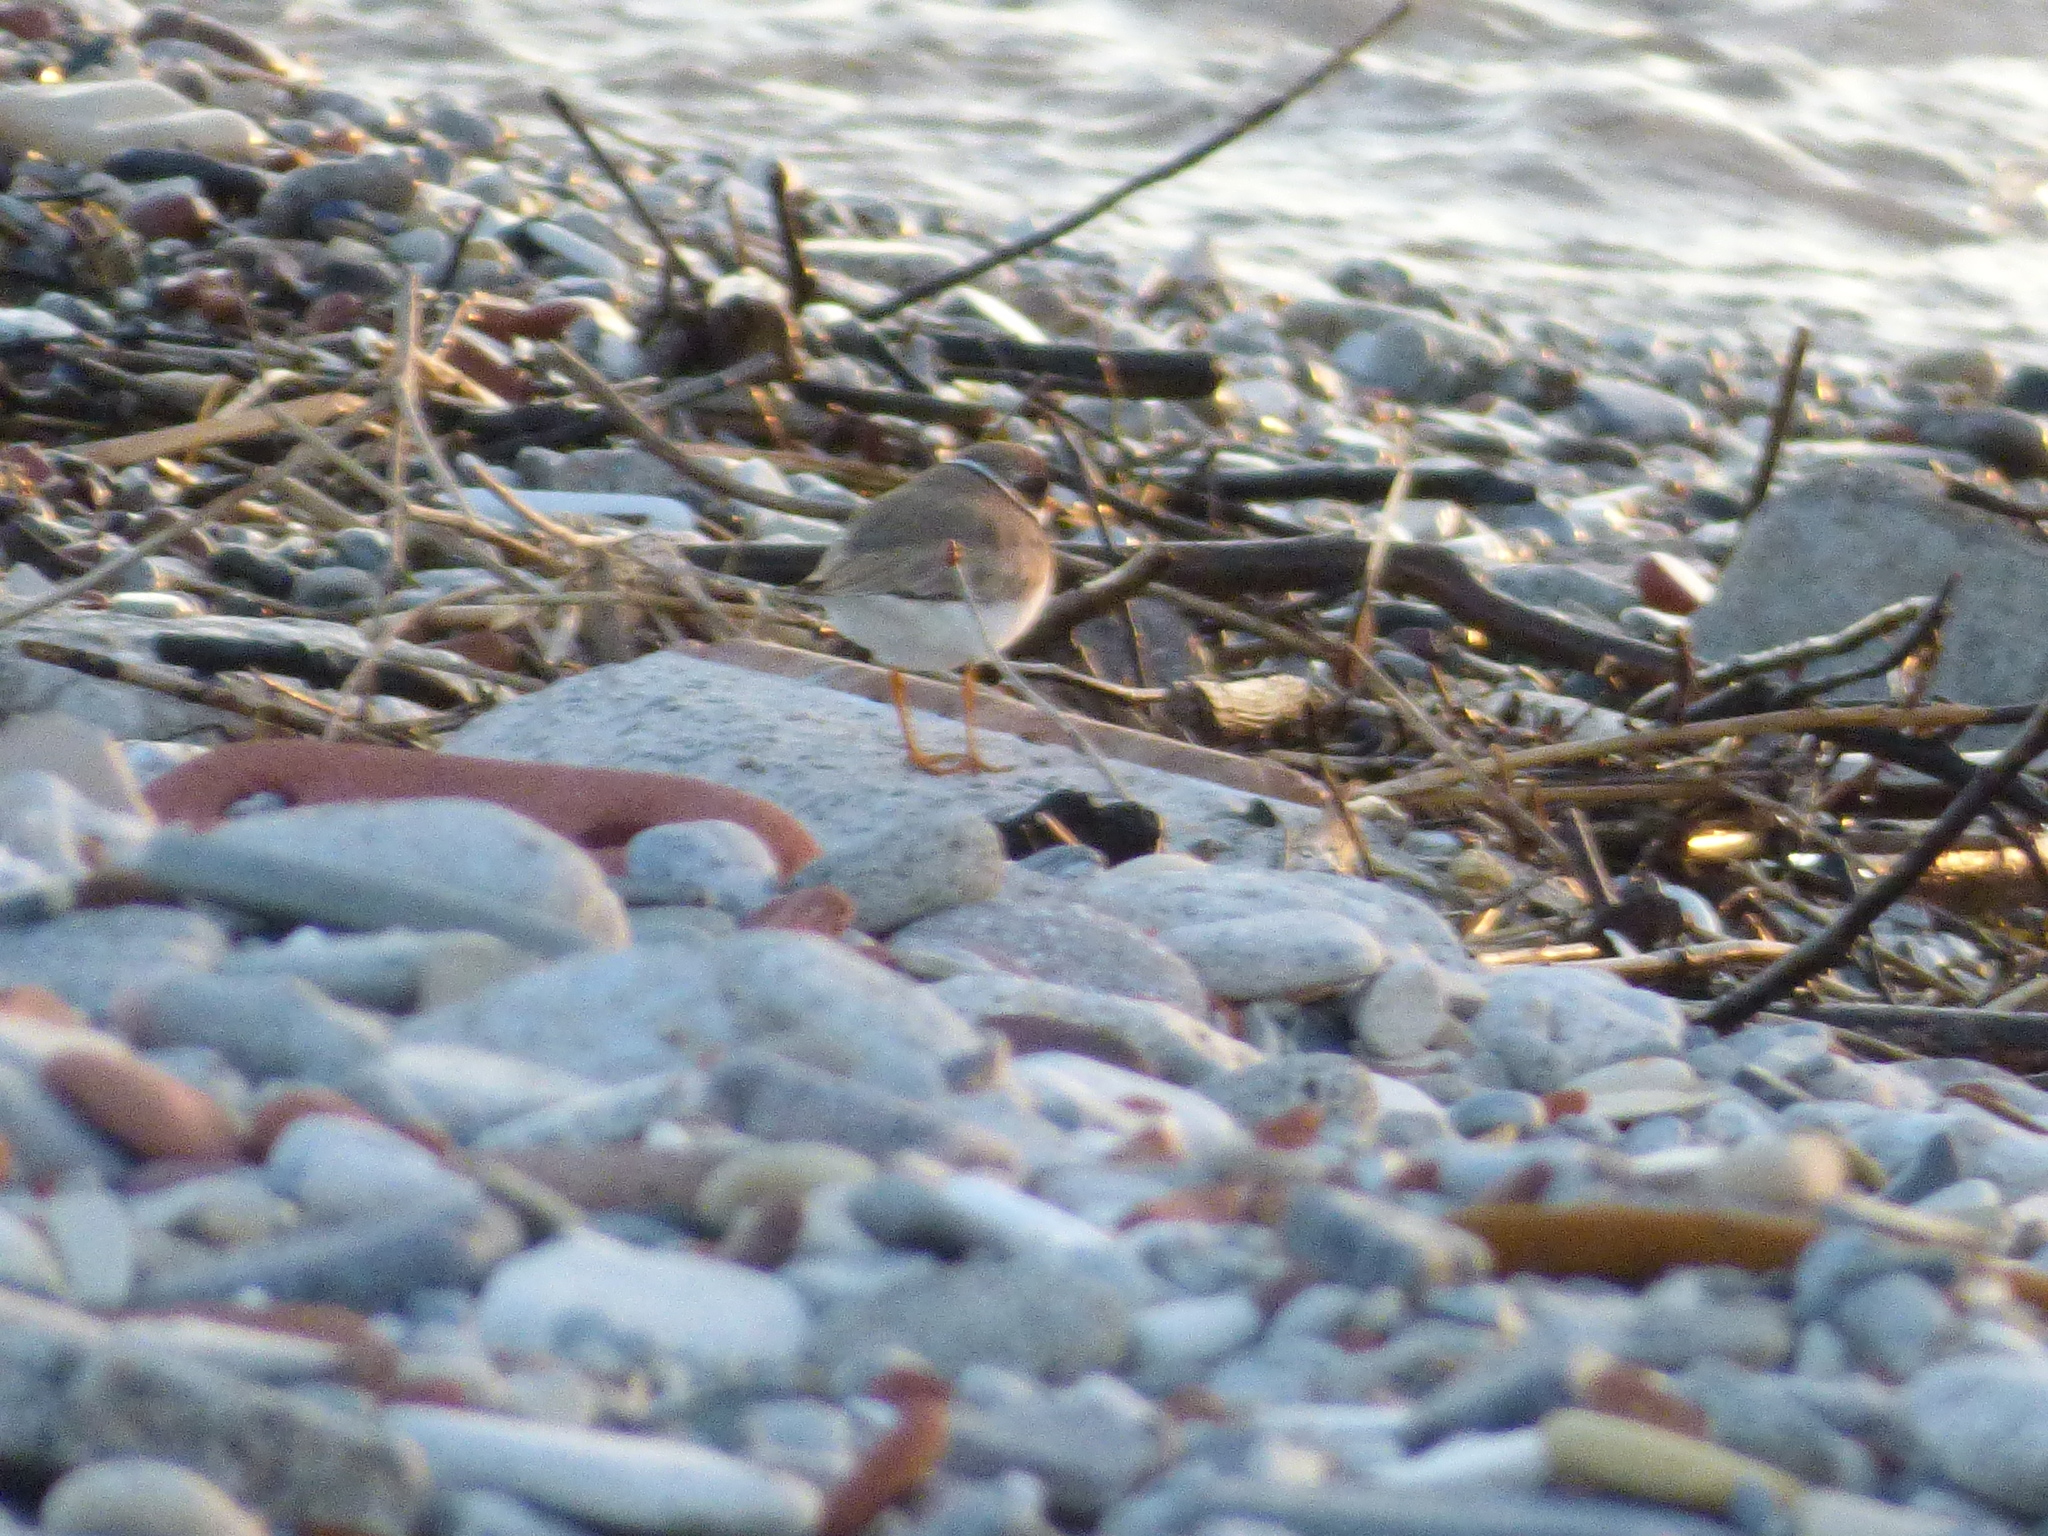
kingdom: Animalia
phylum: Chordata
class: Aves
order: Charadriiformes
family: Charadriidae
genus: Charadrius
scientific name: Charadrius semipalmatus
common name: Semipalmated plover
